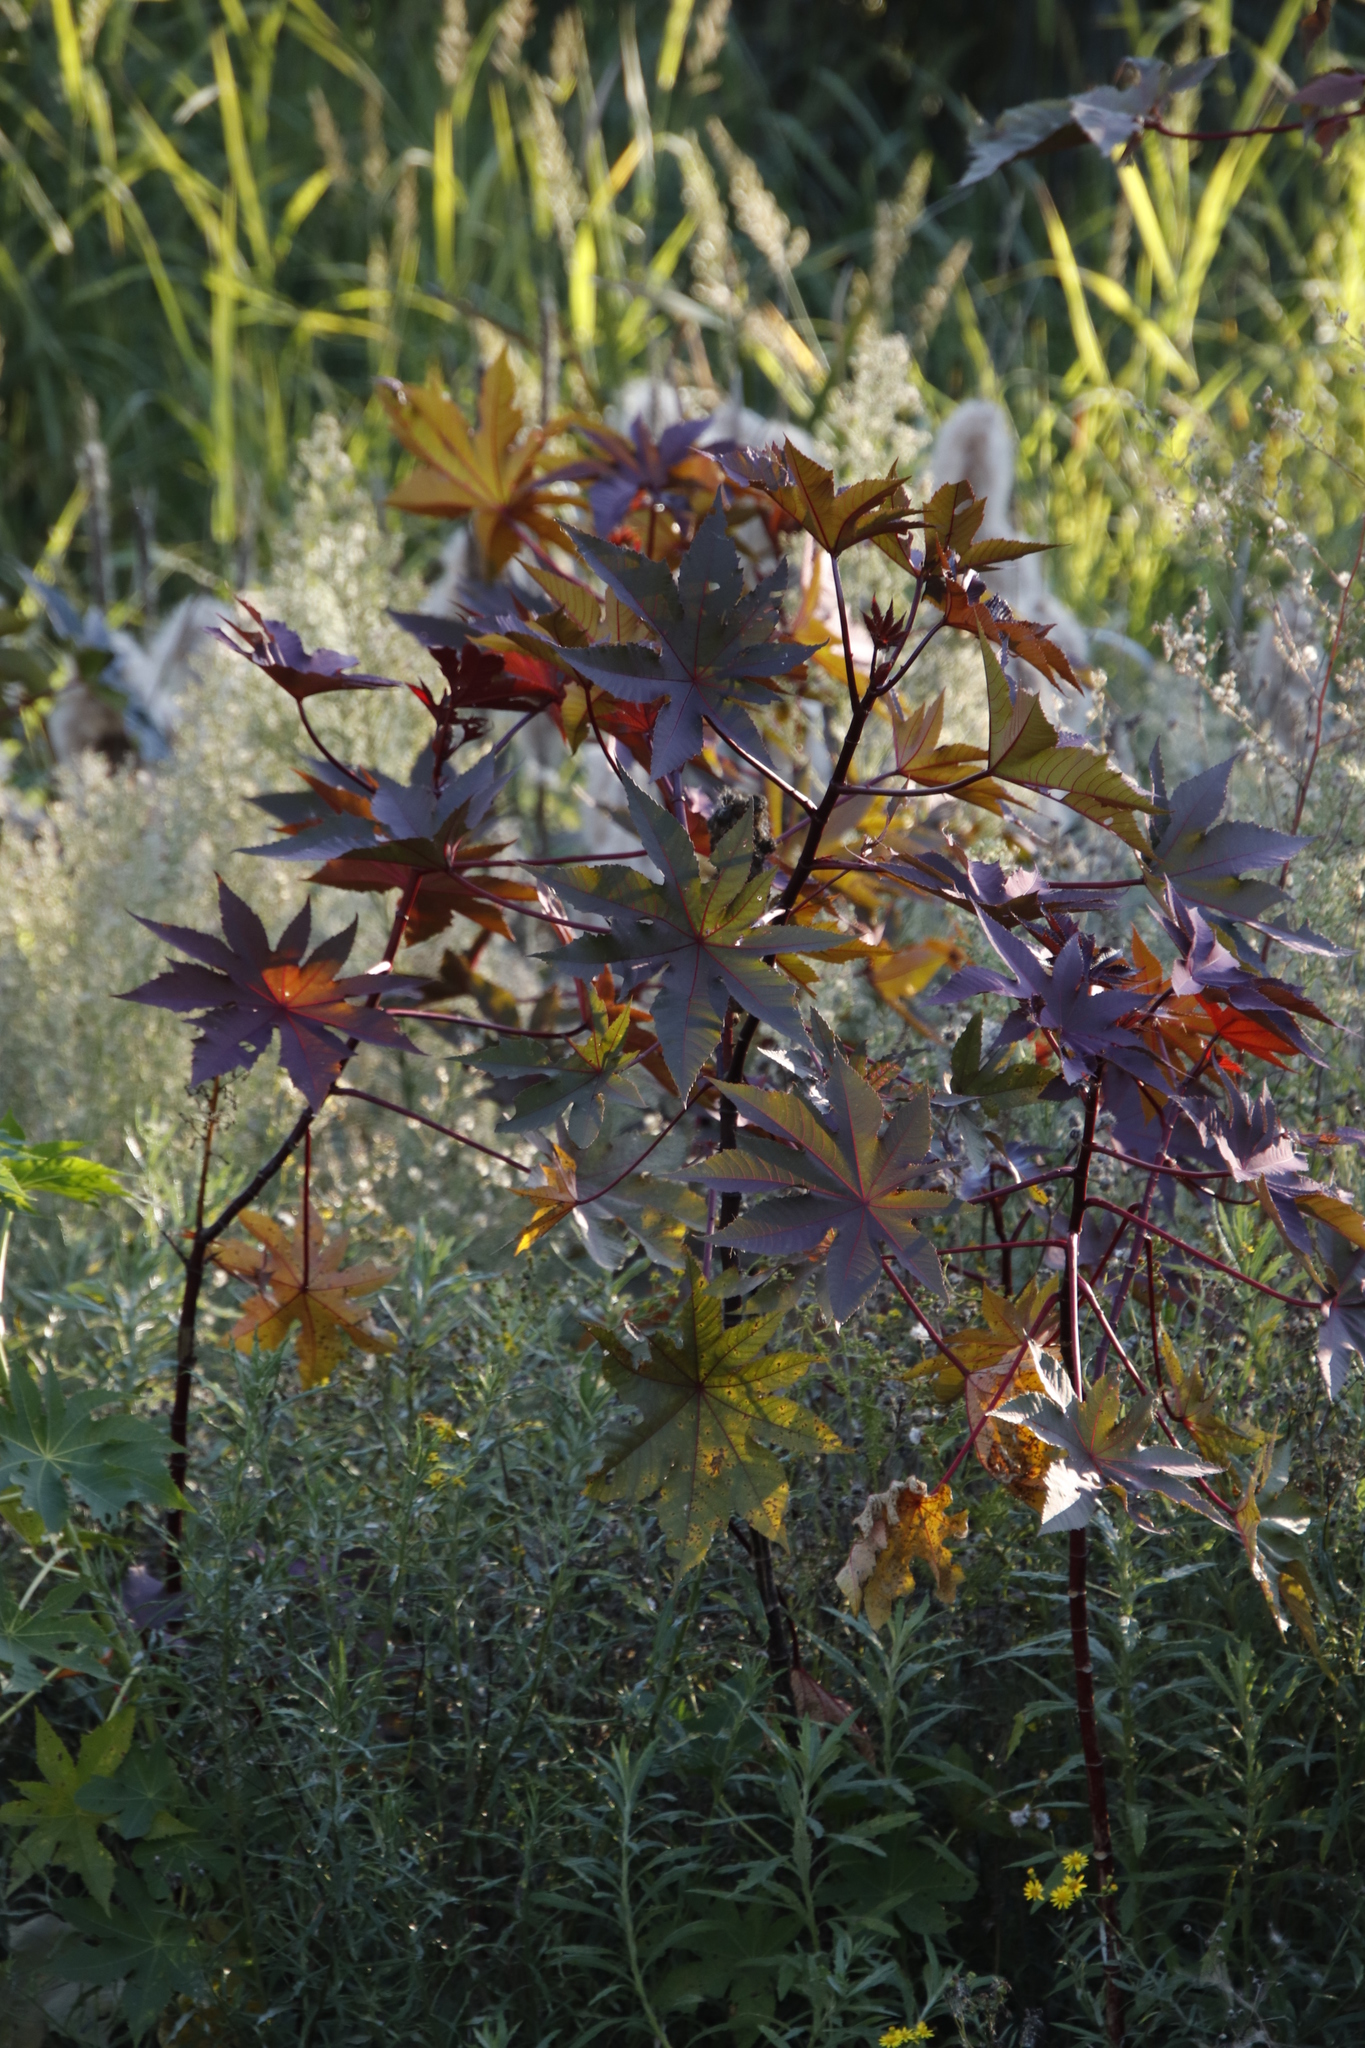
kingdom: Plantae
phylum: Tracheophyta
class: Magnoliopsida
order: Malpighiales
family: Euphorbiaceae
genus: Ricinus
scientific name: Ricinus communis
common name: Castor-oil-plant
